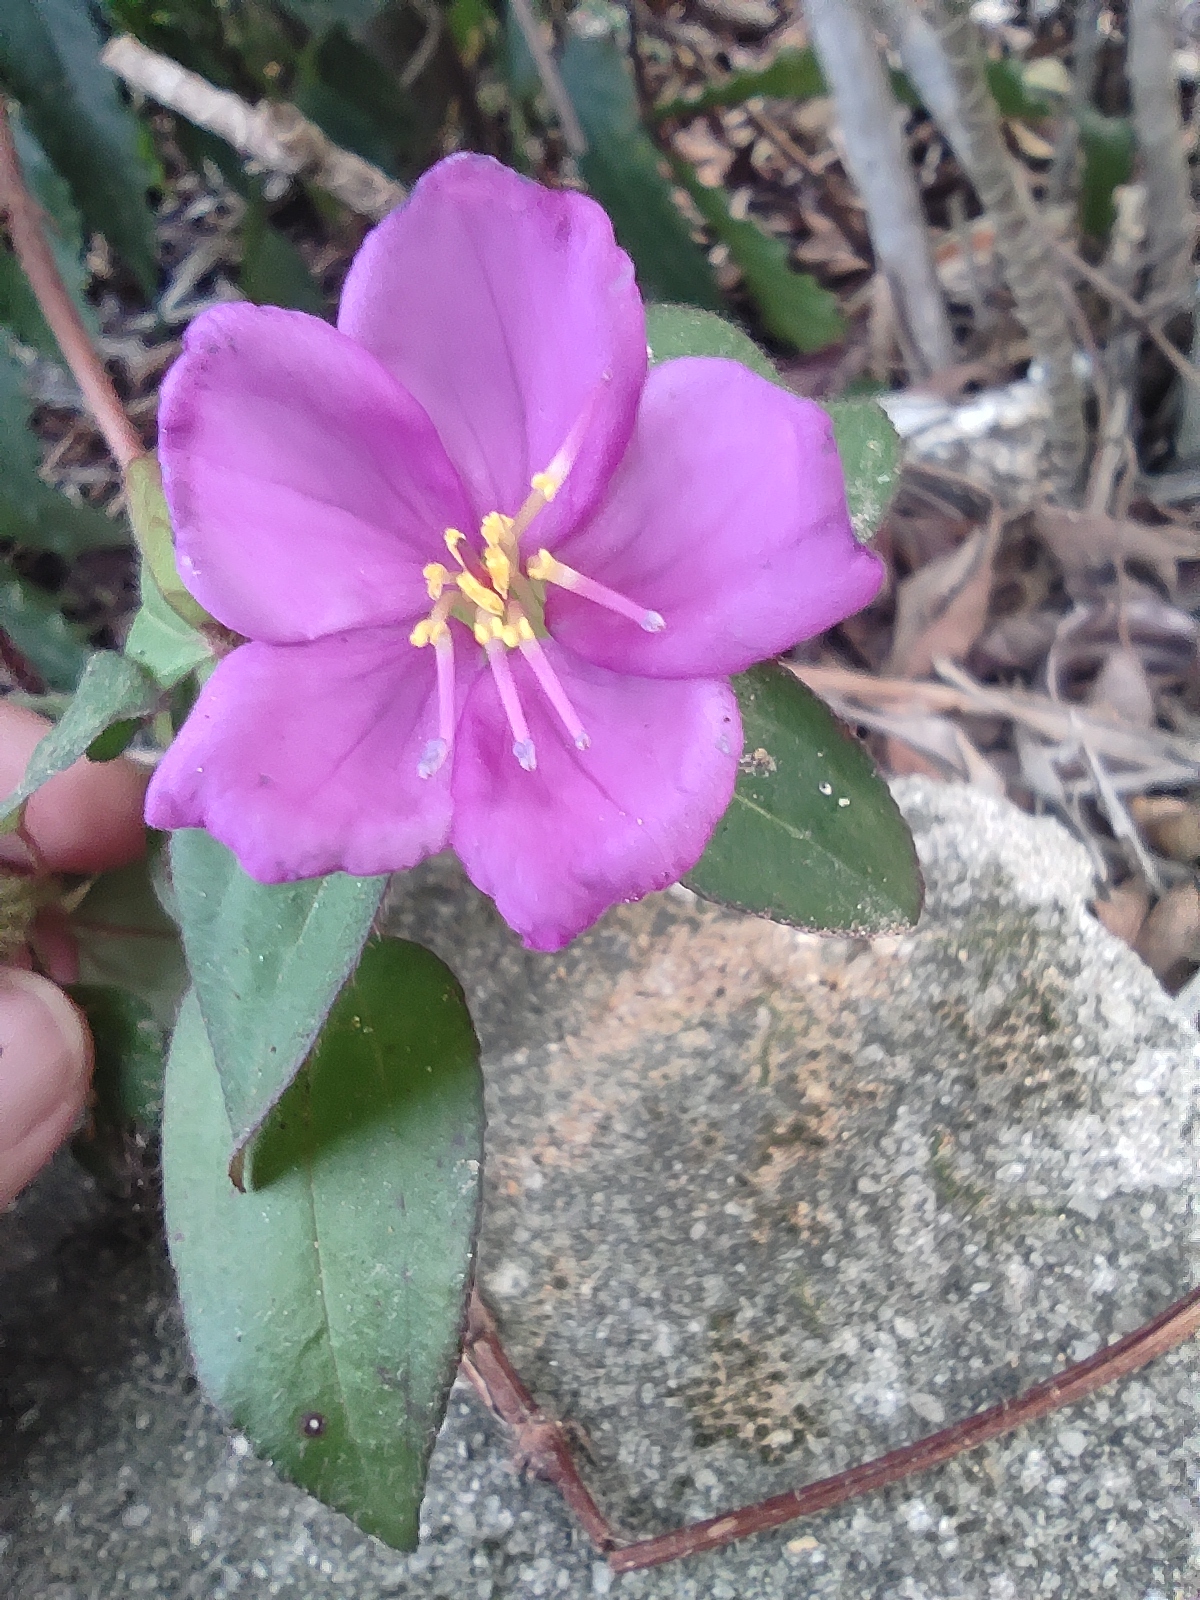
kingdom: Plantae
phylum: Tracheophyta
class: Magnoliopsida
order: Myrtales
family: Melastomataceae
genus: Heterotis
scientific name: Heterotis rotundifolia
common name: Pinklady
